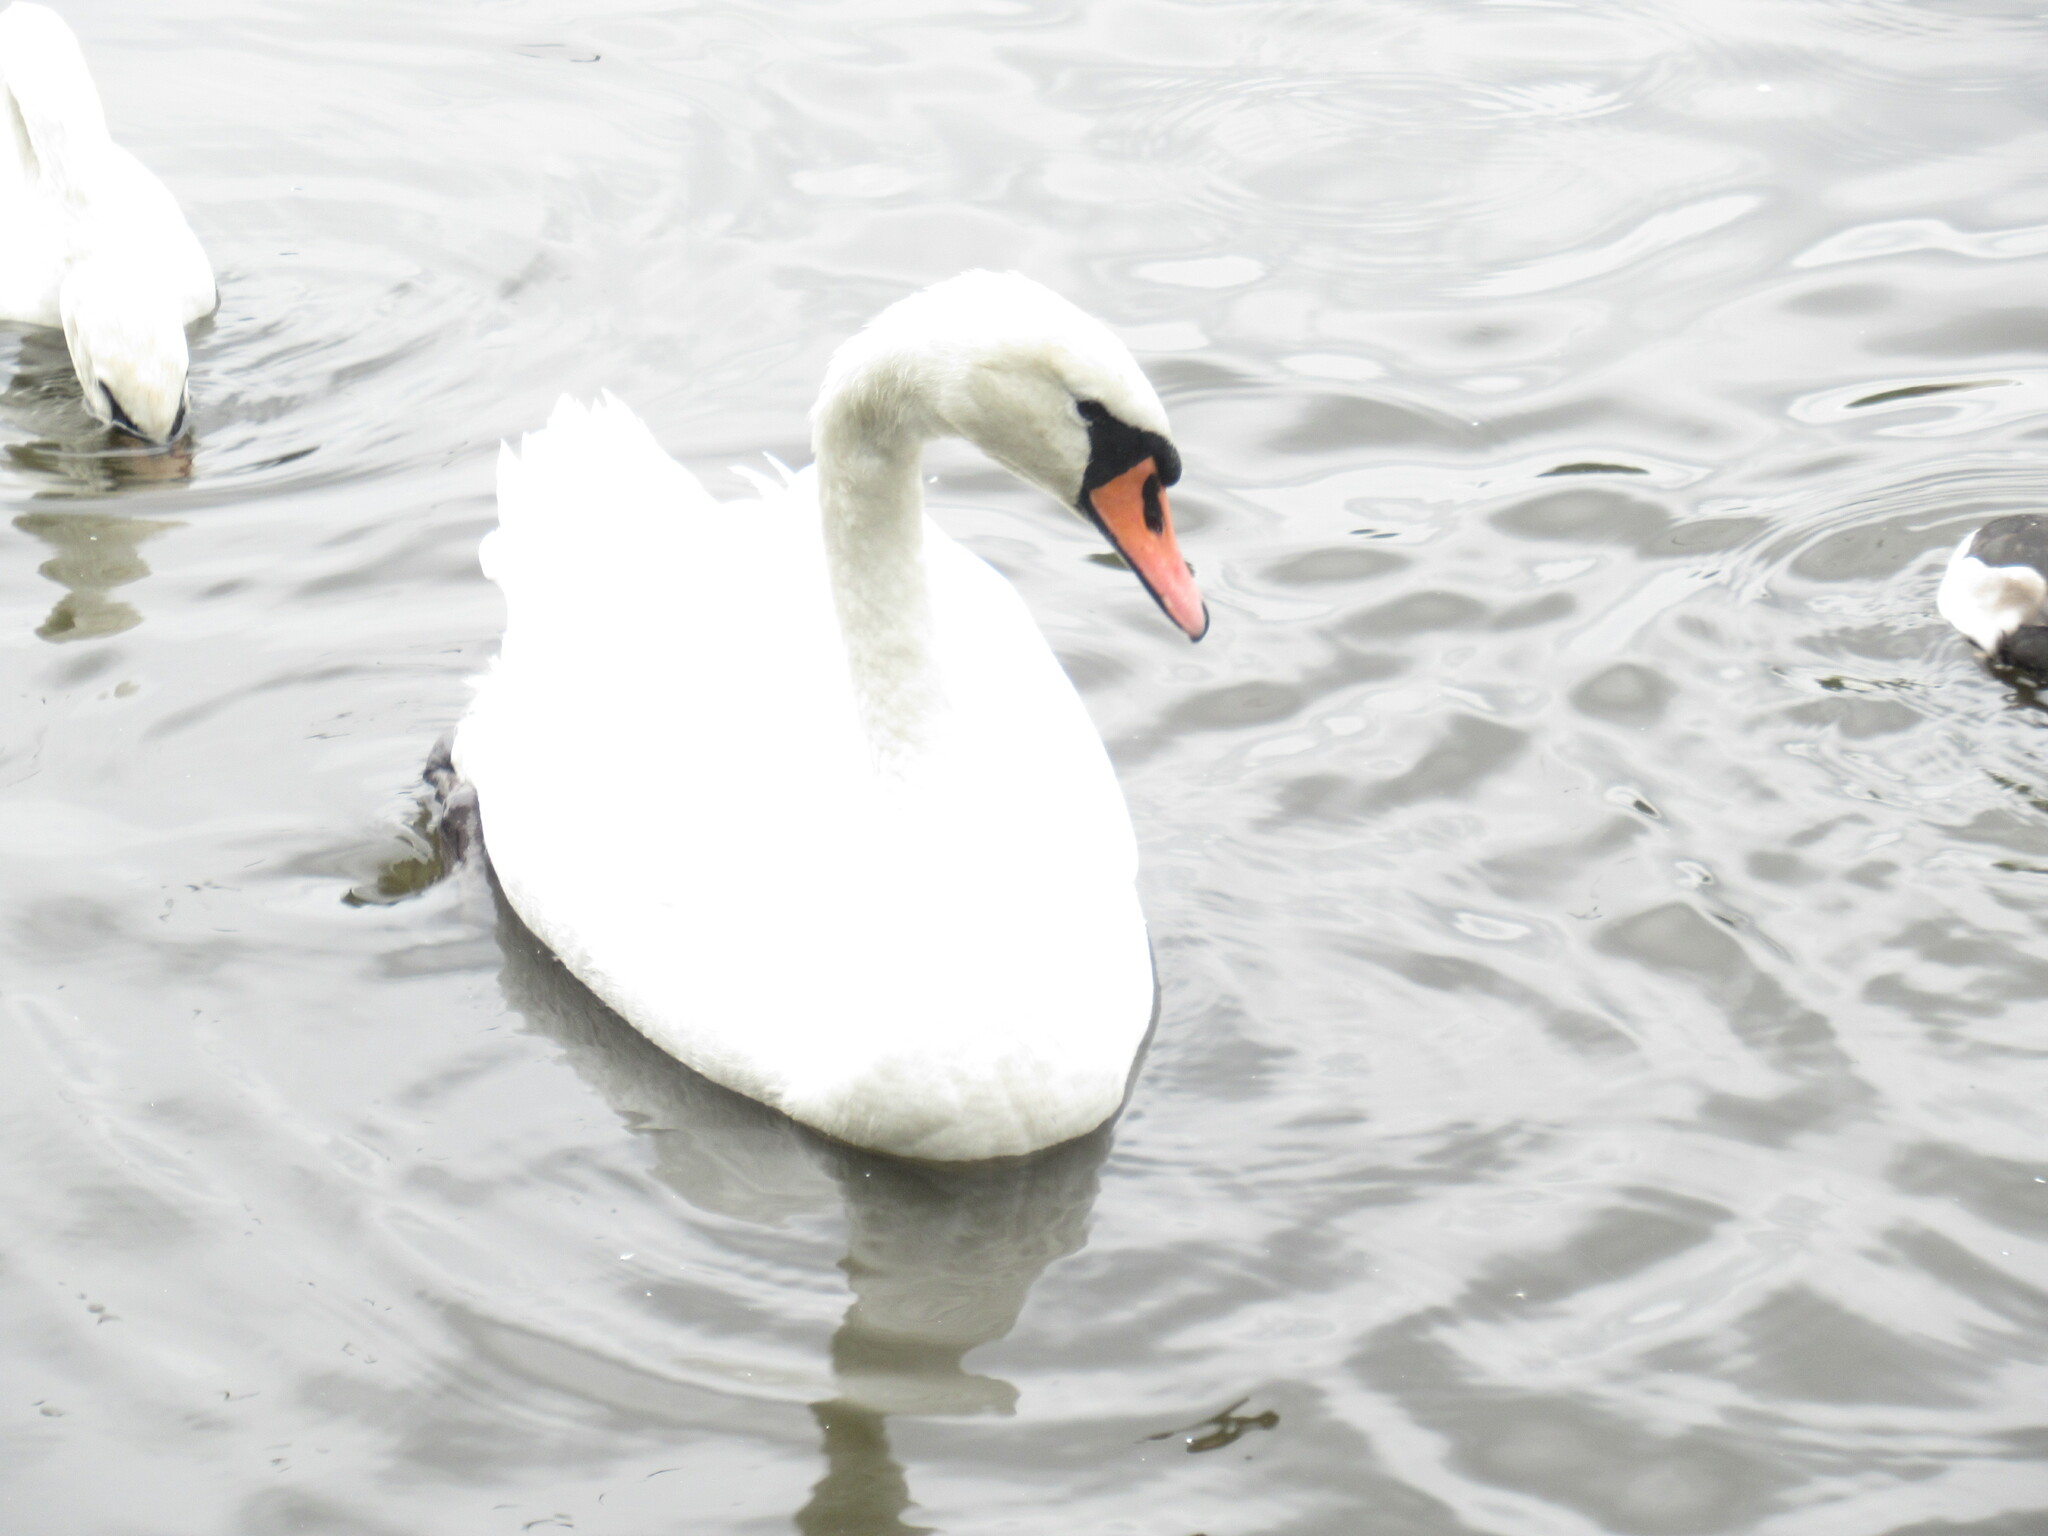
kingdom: Animalia
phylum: Chordata
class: Aves
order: Anseriformes
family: Anatidae
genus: Cygnus
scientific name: Cygnus olor
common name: Mute swan
